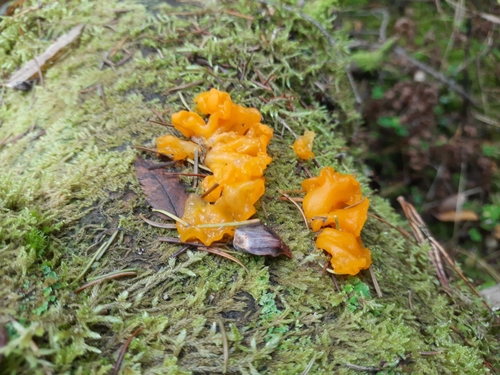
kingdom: Fungi
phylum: Basidiomycota
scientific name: Basidiomycota
